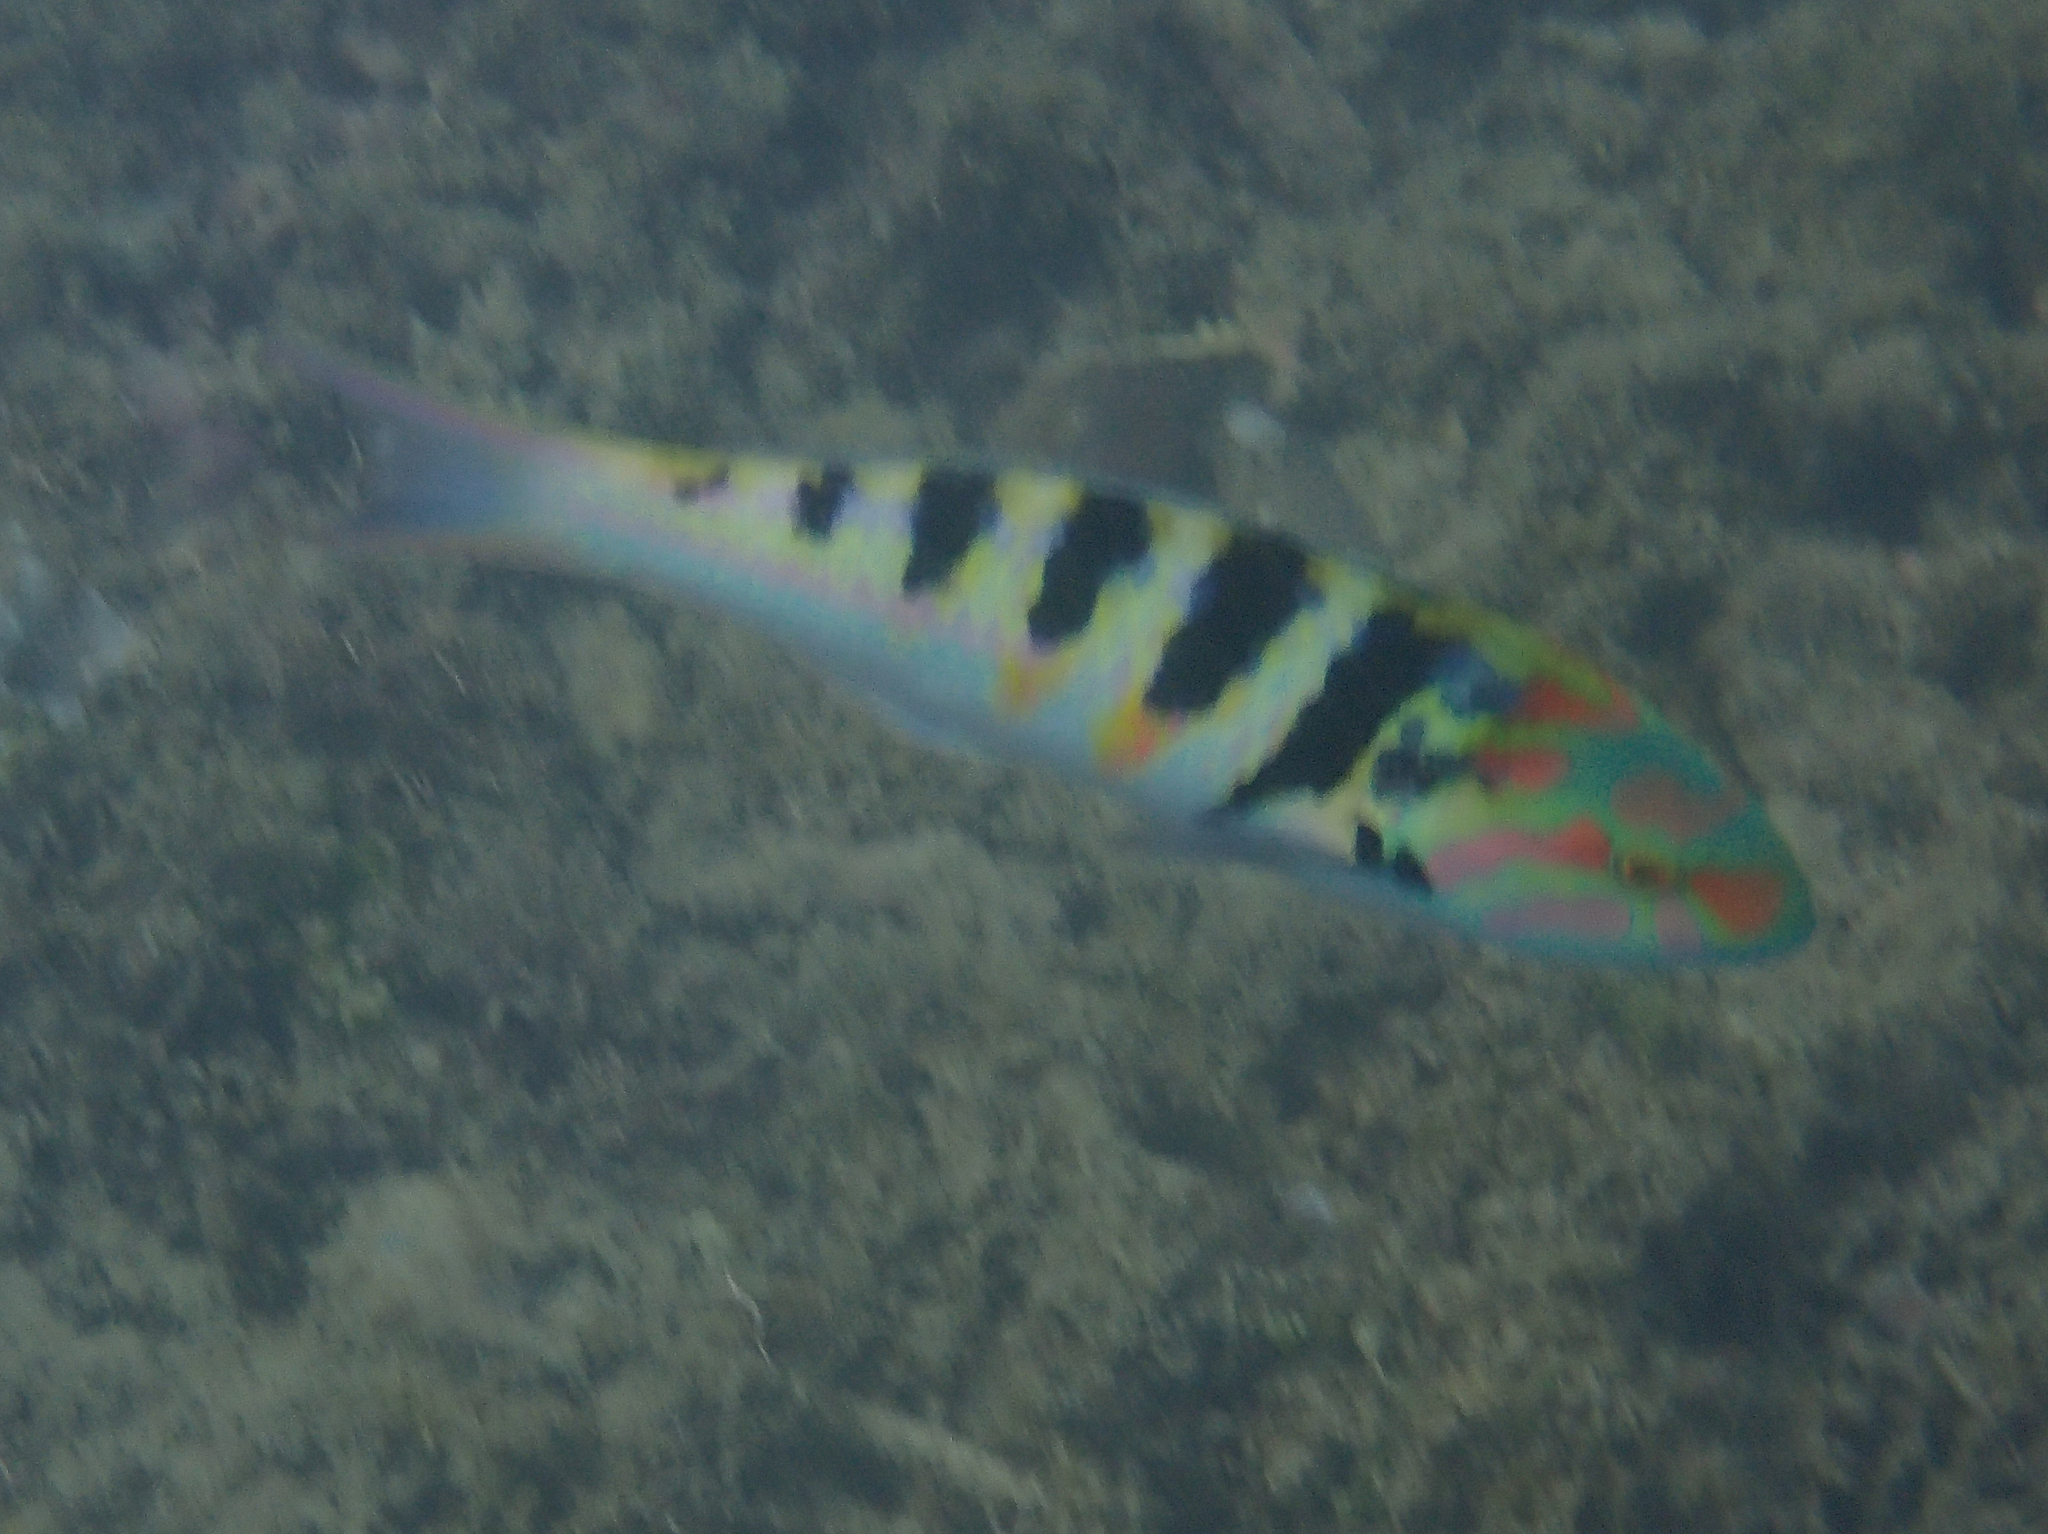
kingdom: Animalia
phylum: Chordata
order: Perciformes
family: Labridae
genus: Thalassoma
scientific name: Thalassoma hardwicke
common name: Sixbar wrasse
